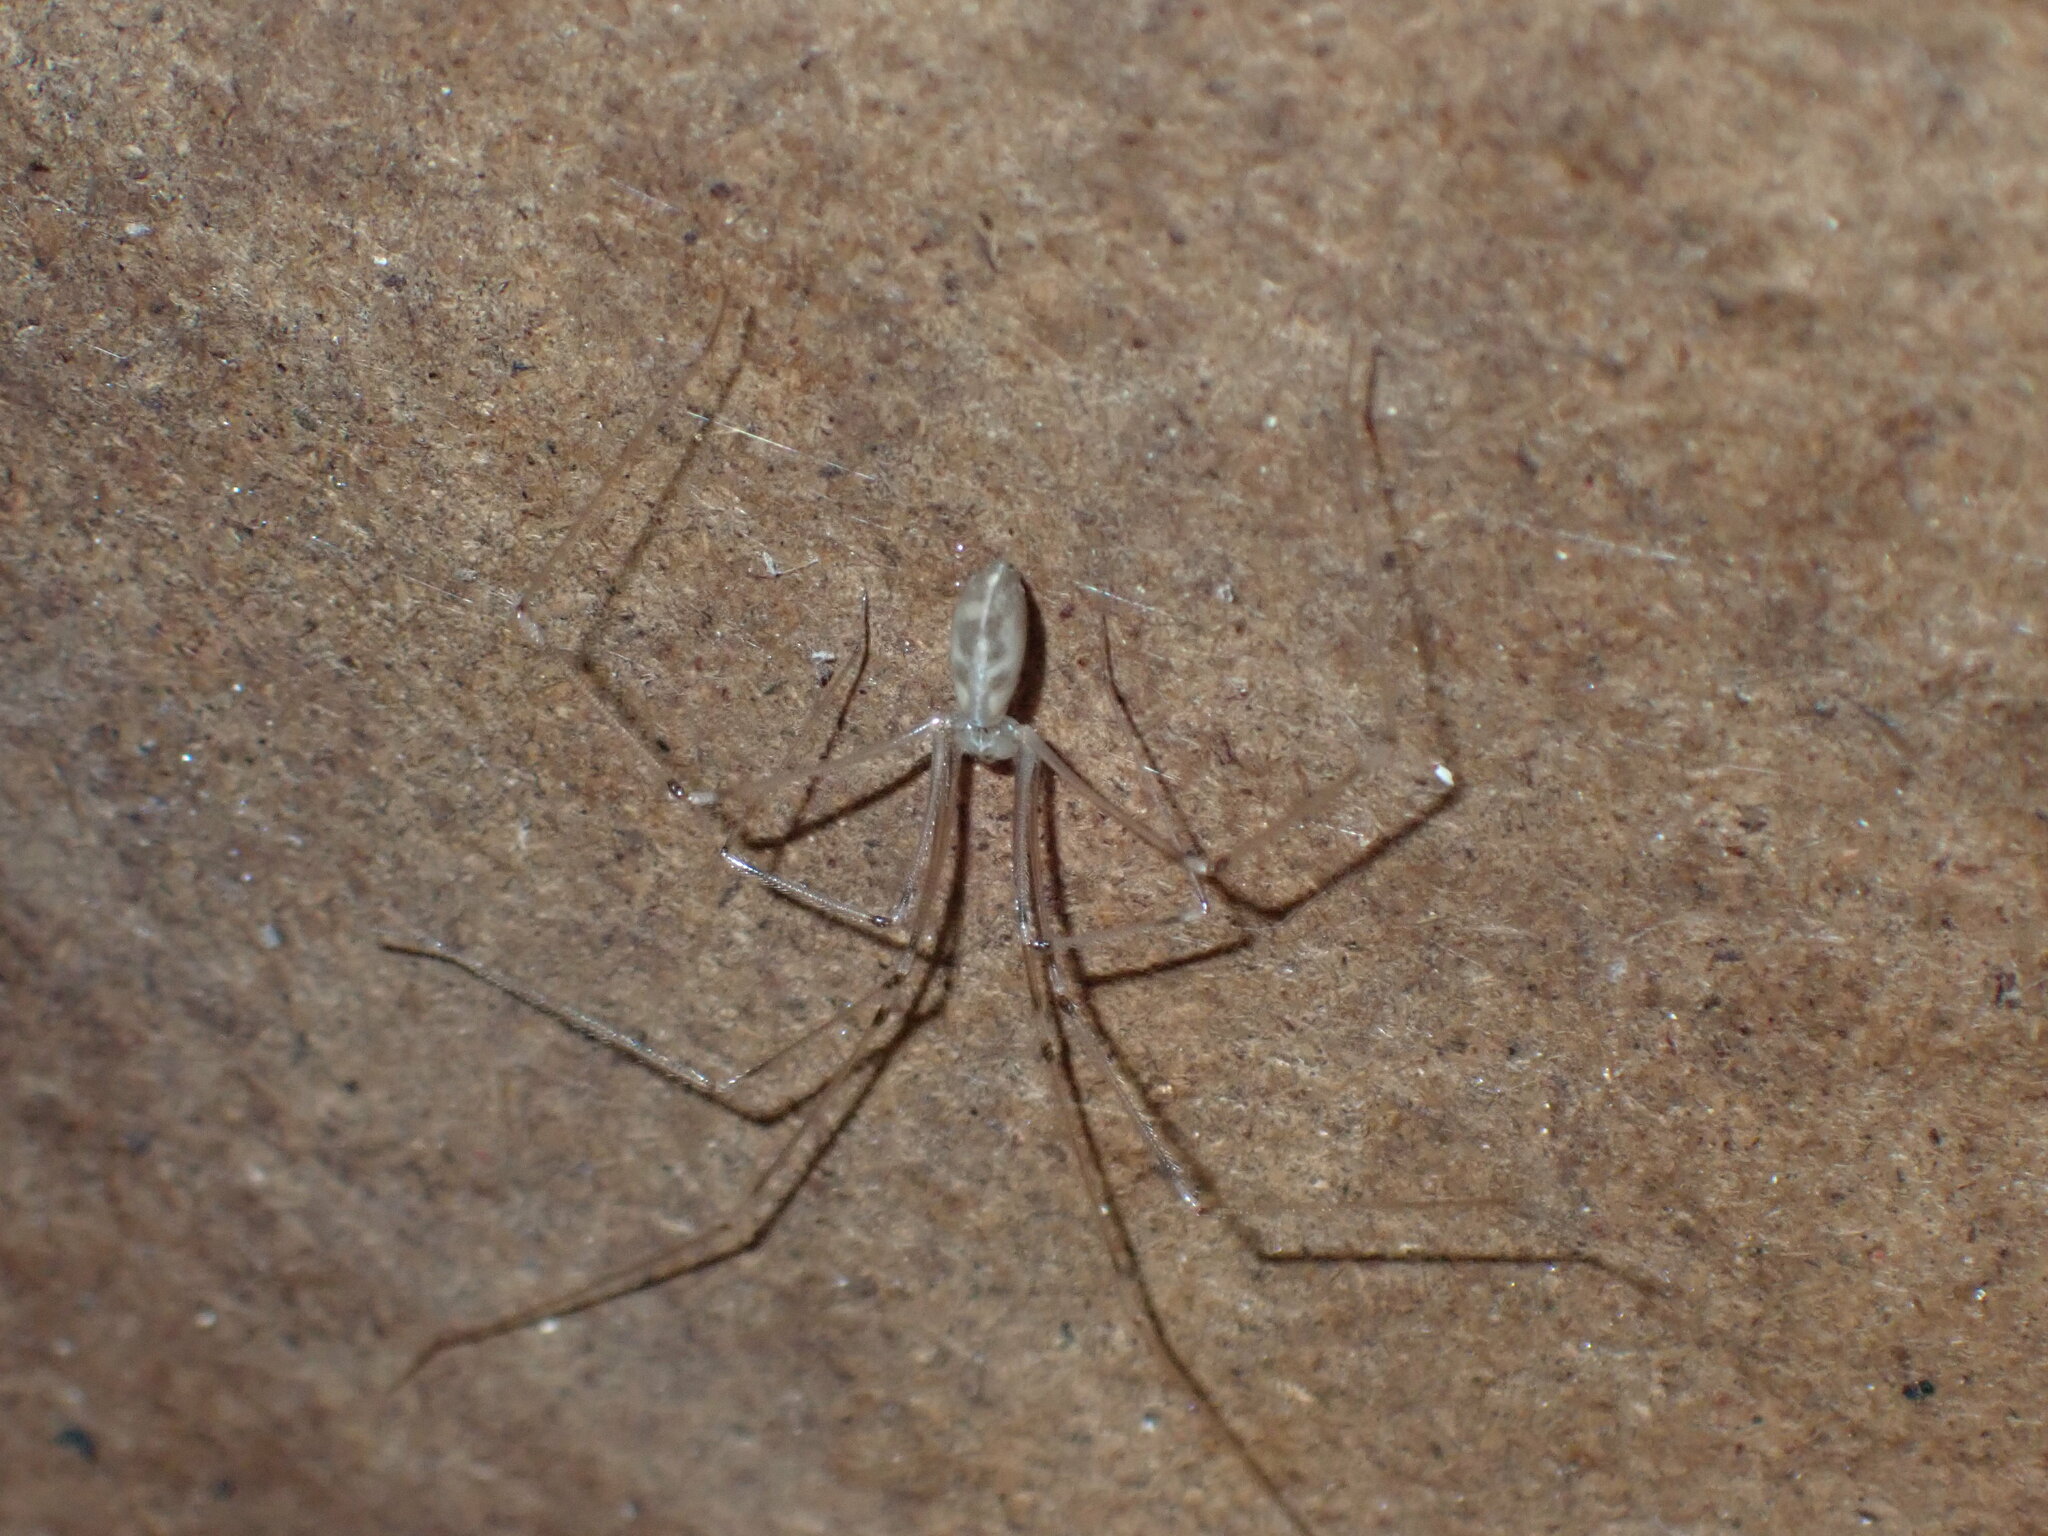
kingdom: Animalia
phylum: Arthropoda
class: Arachnida
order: Araneae
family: Pholcidae
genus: Pholcus
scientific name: Pholcus phalangioides
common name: Longbodied cellar spider
